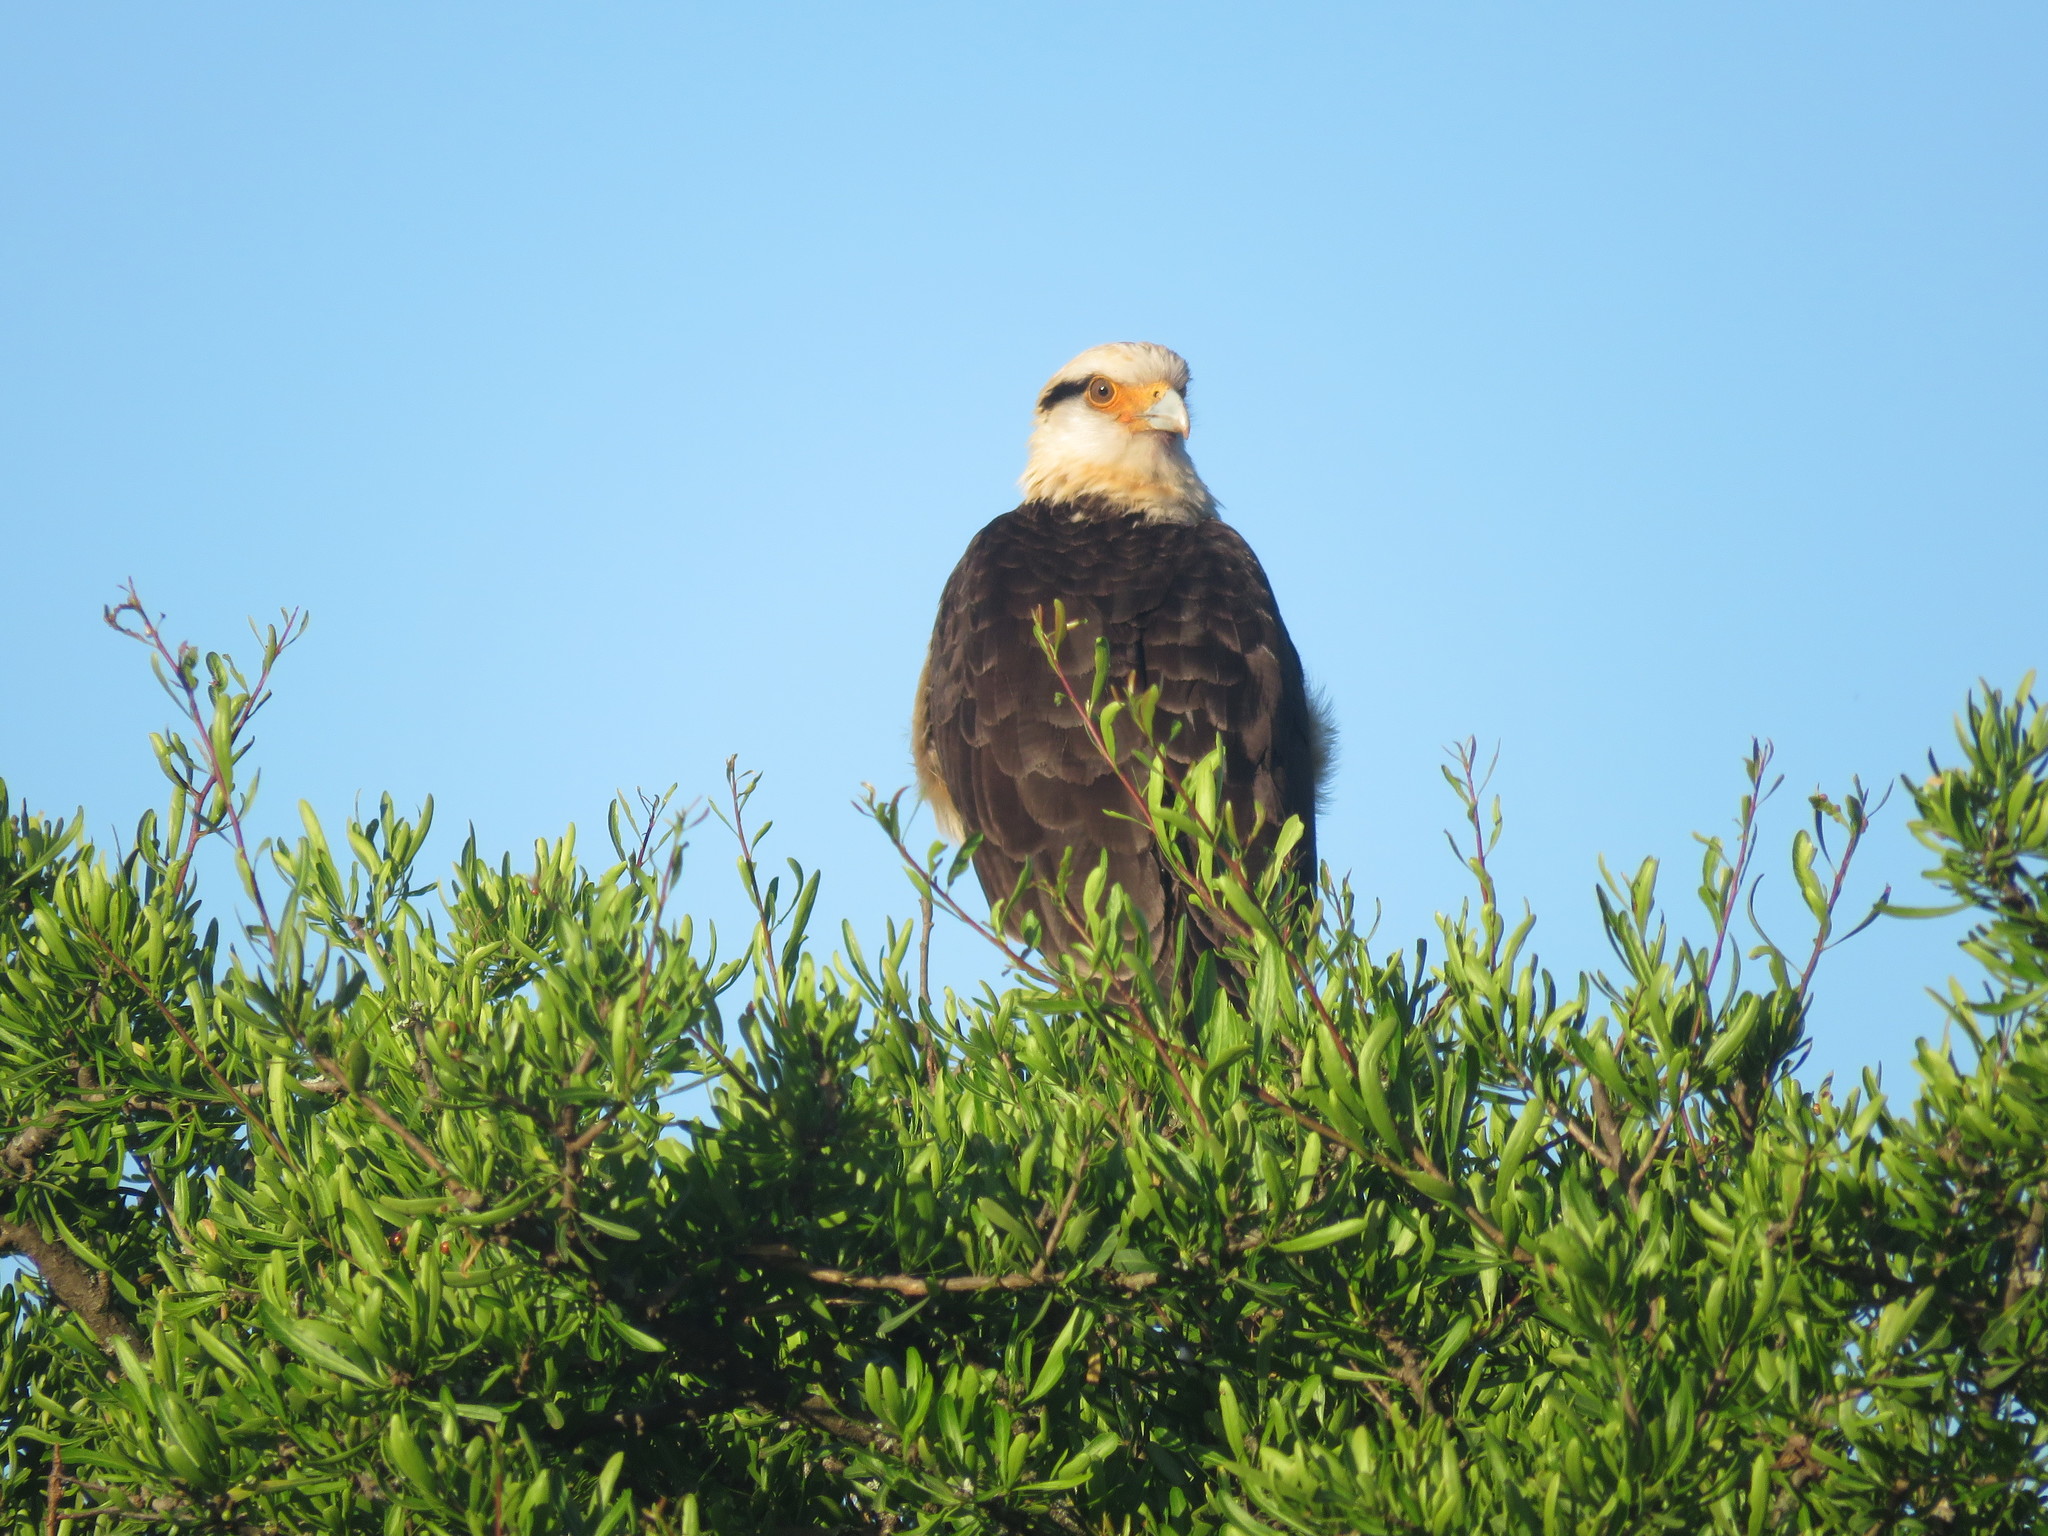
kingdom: Animalia
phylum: Chordata
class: Aves
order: Falconiformes
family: Falconidae
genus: Daptrius
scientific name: Daptrius
